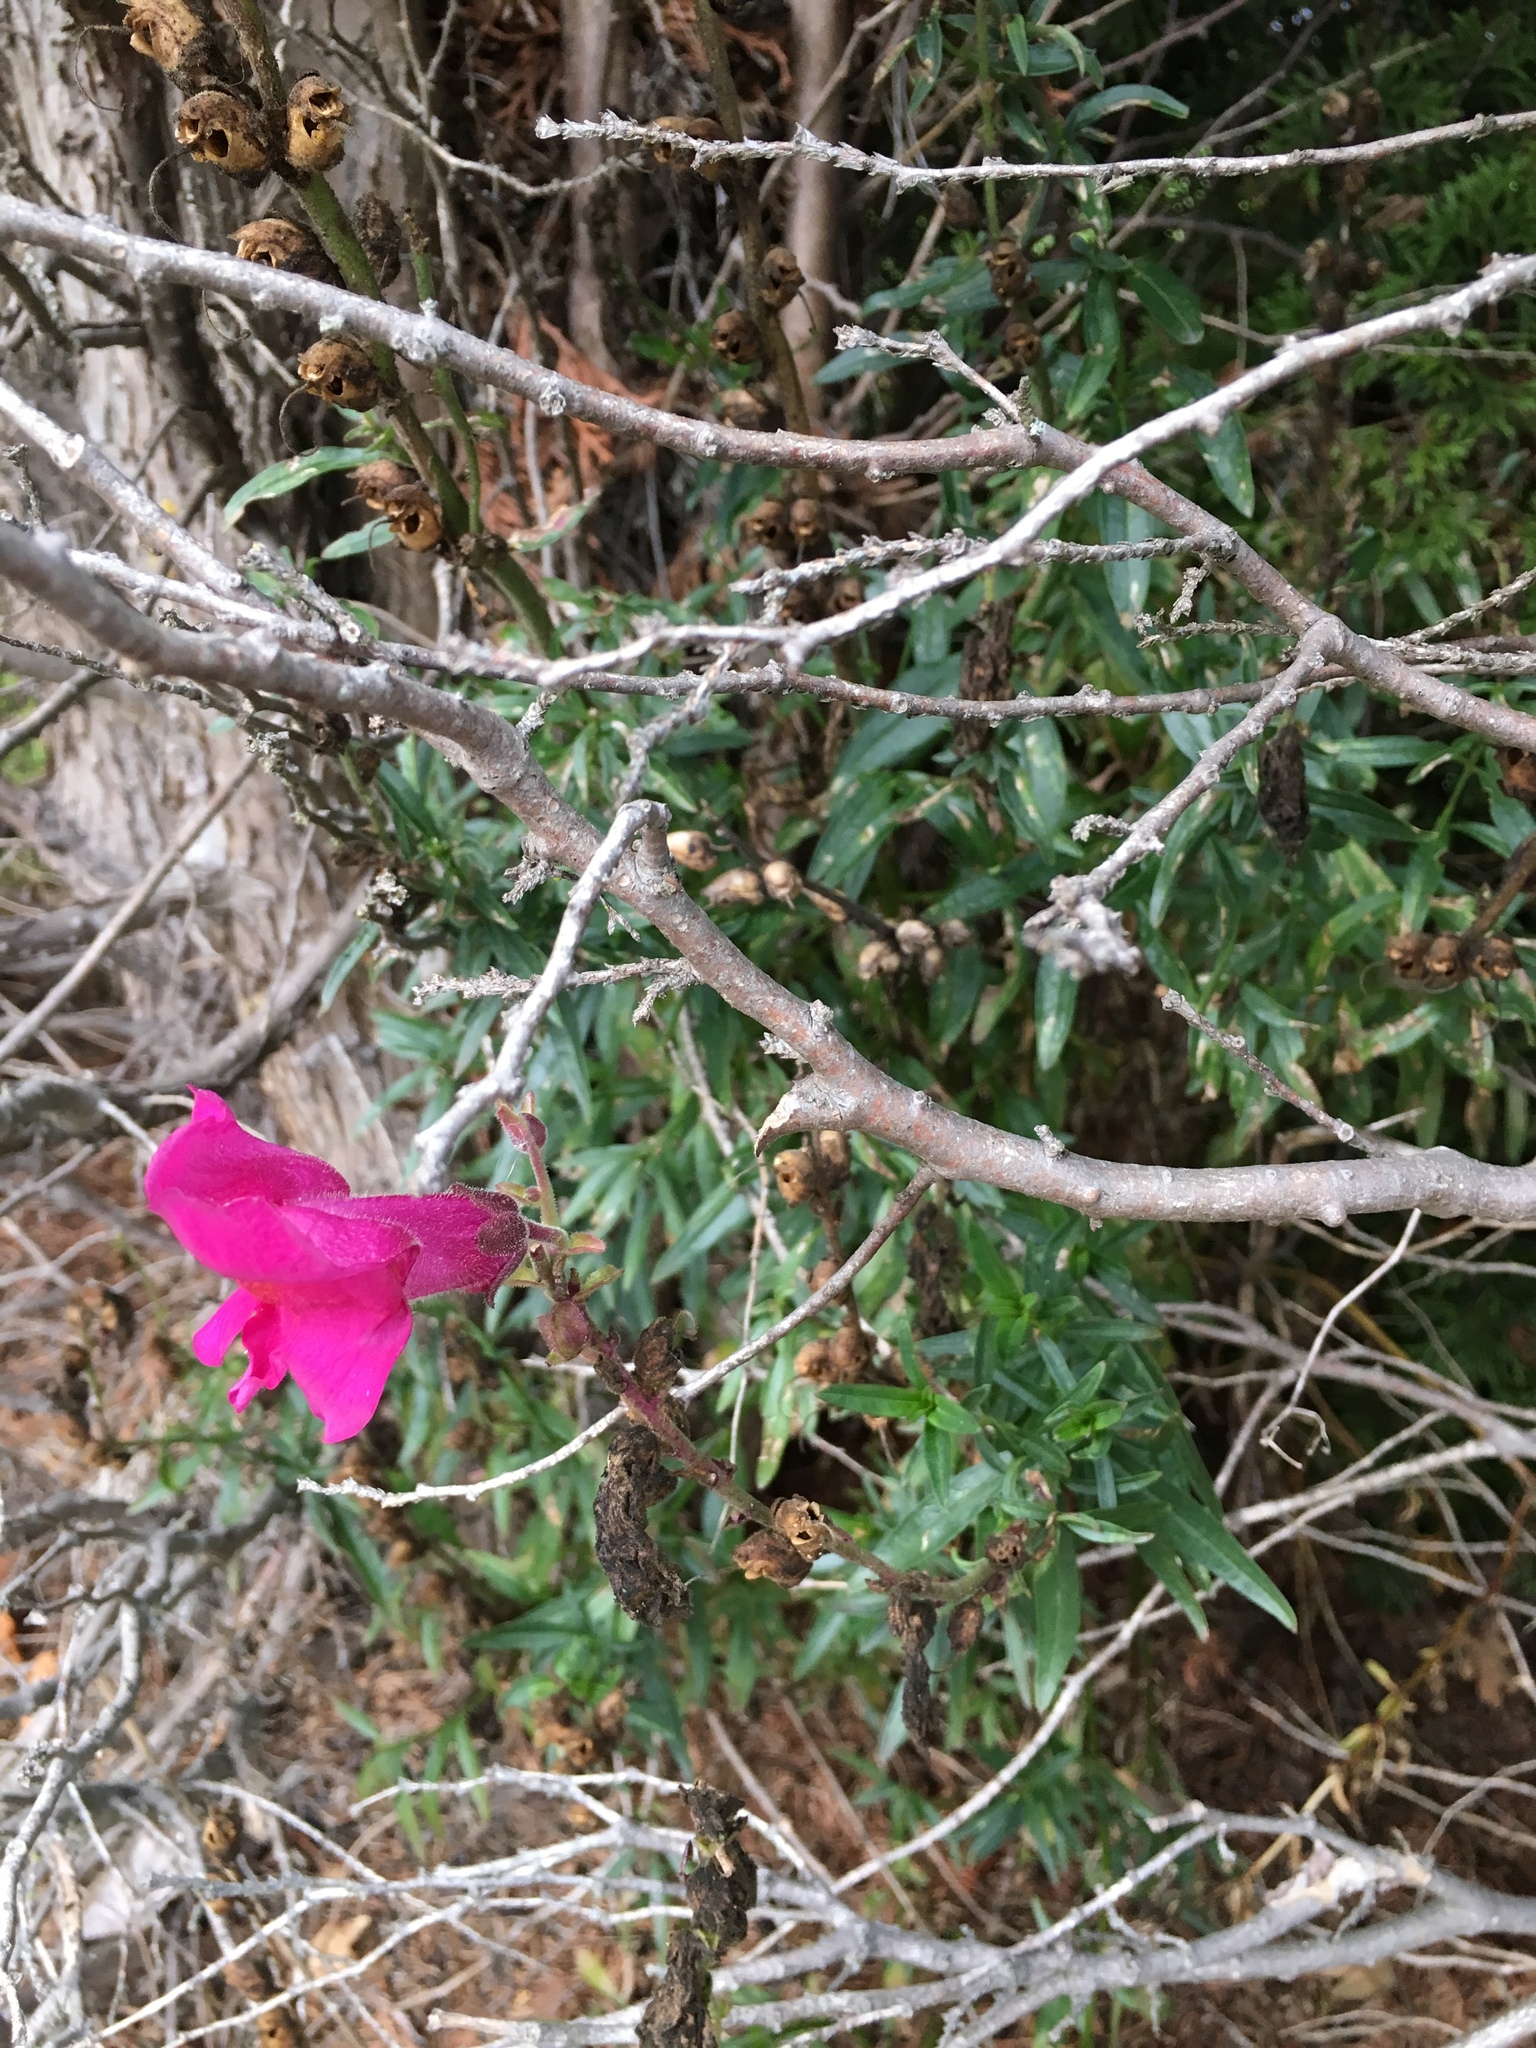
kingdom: Plantae
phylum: Tracheophyta
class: Magnoliopsida
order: Lamiales
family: Plantaginaceae
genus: Antirrhinum
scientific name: Antirrhinum majus
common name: Snapdragon
